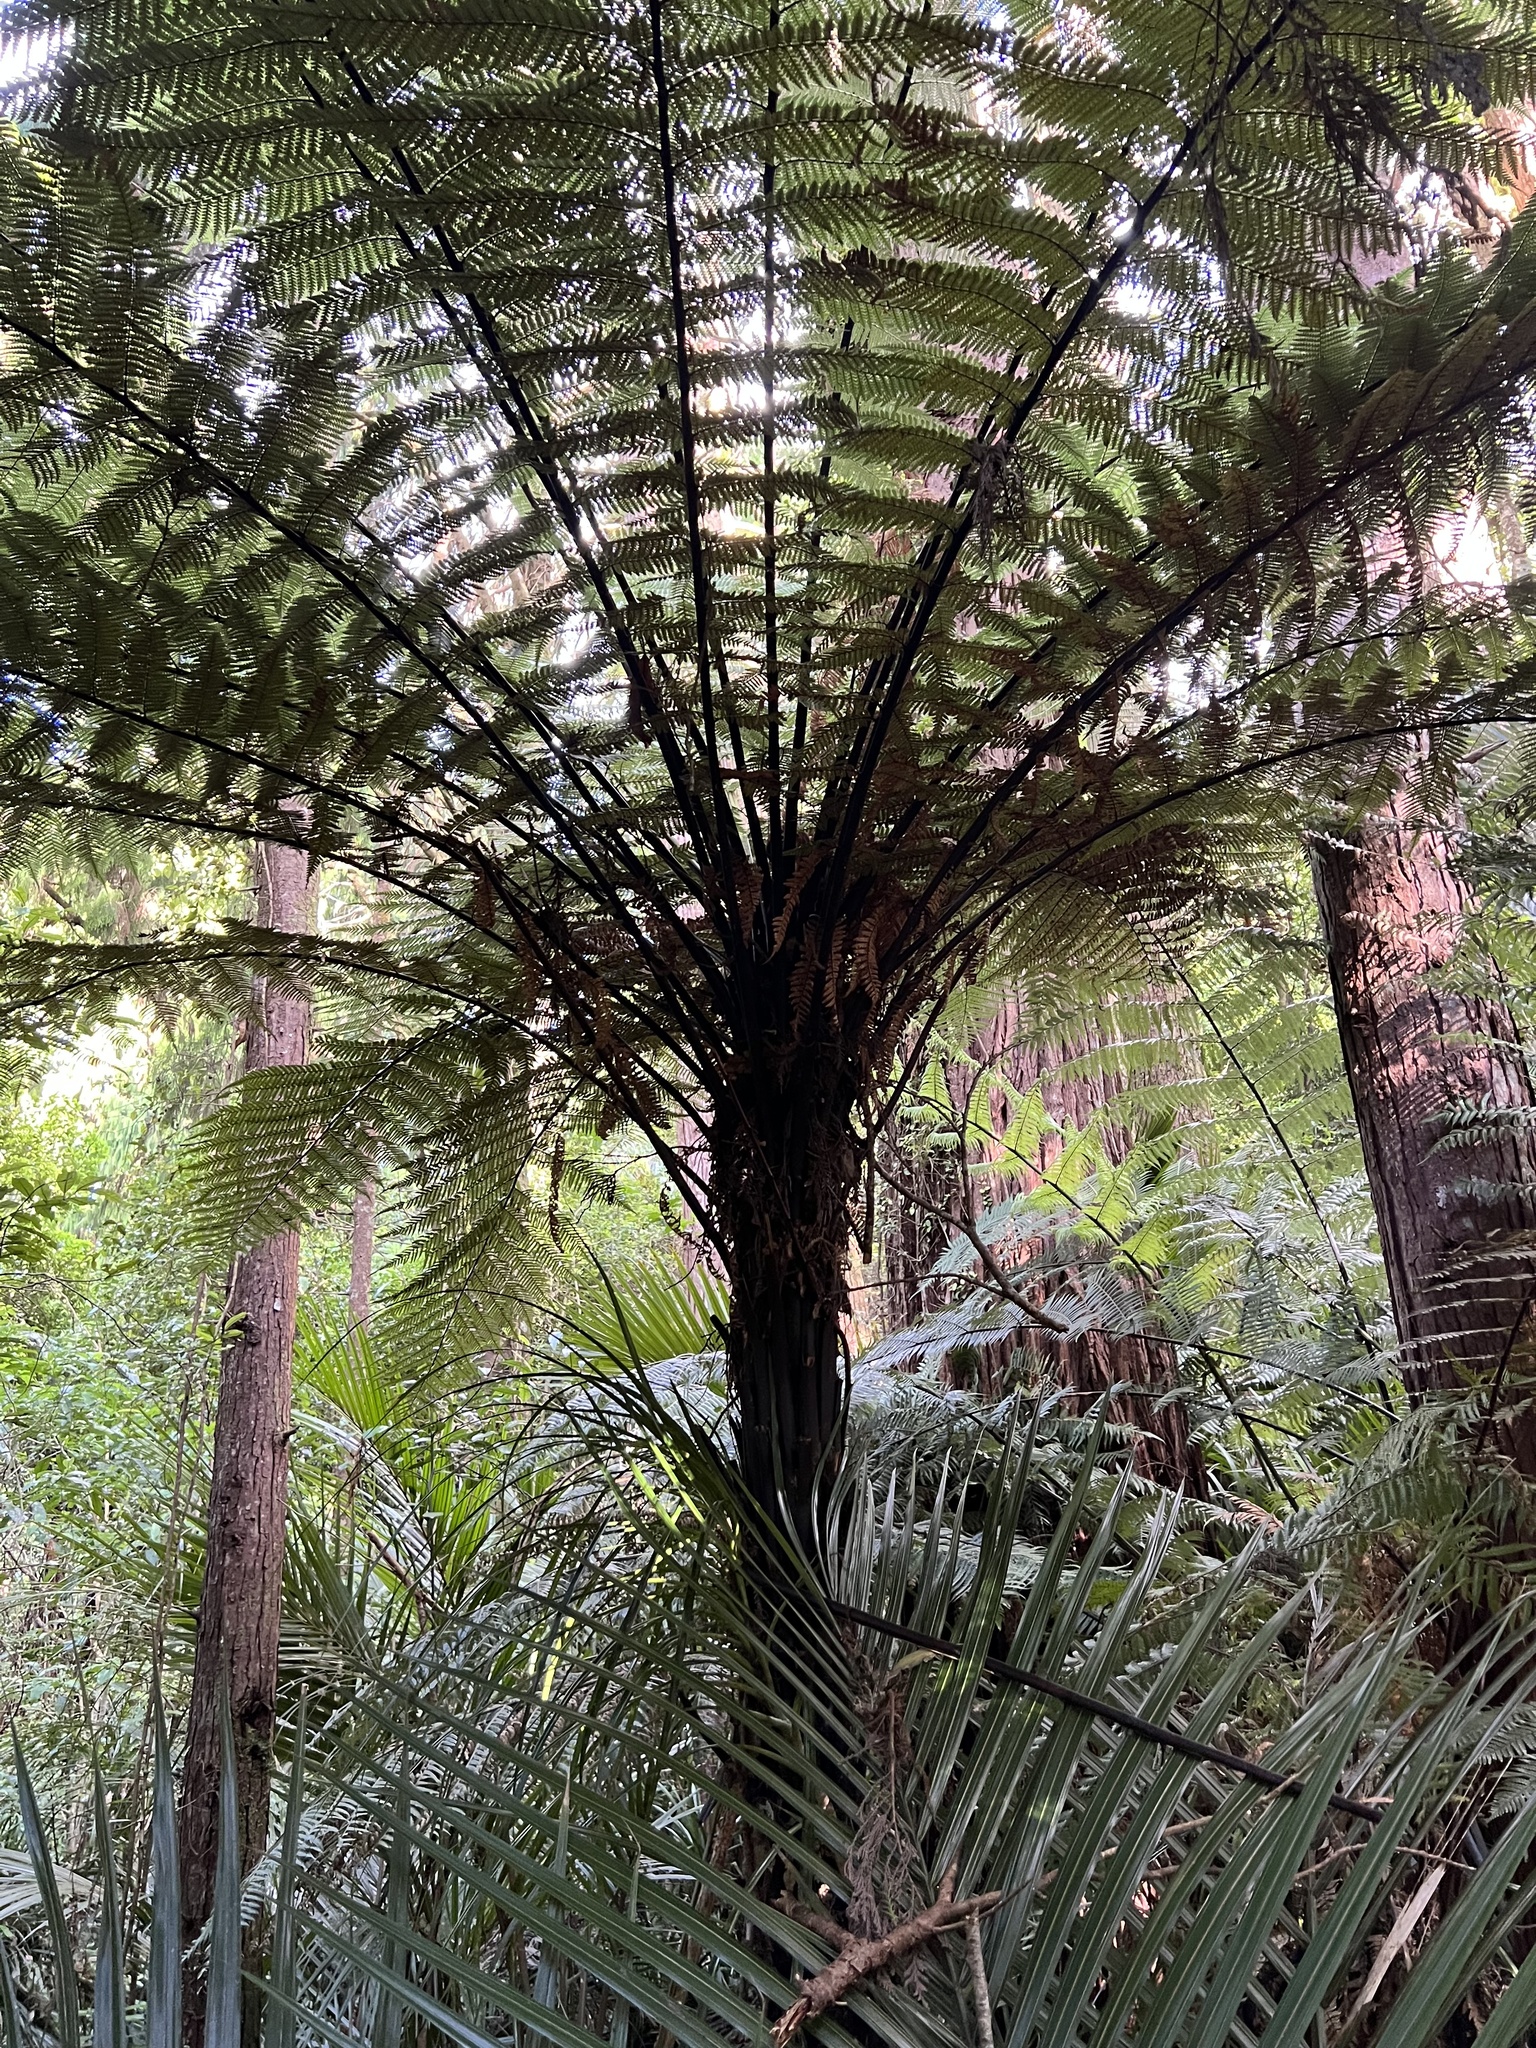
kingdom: Plantae
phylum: Tracheophyta
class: Polypodiopsida
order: Cyatheales
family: Dicksoniaceae
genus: Dicksonia
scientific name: Dicksonia squarrosa
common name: Hard treefern
